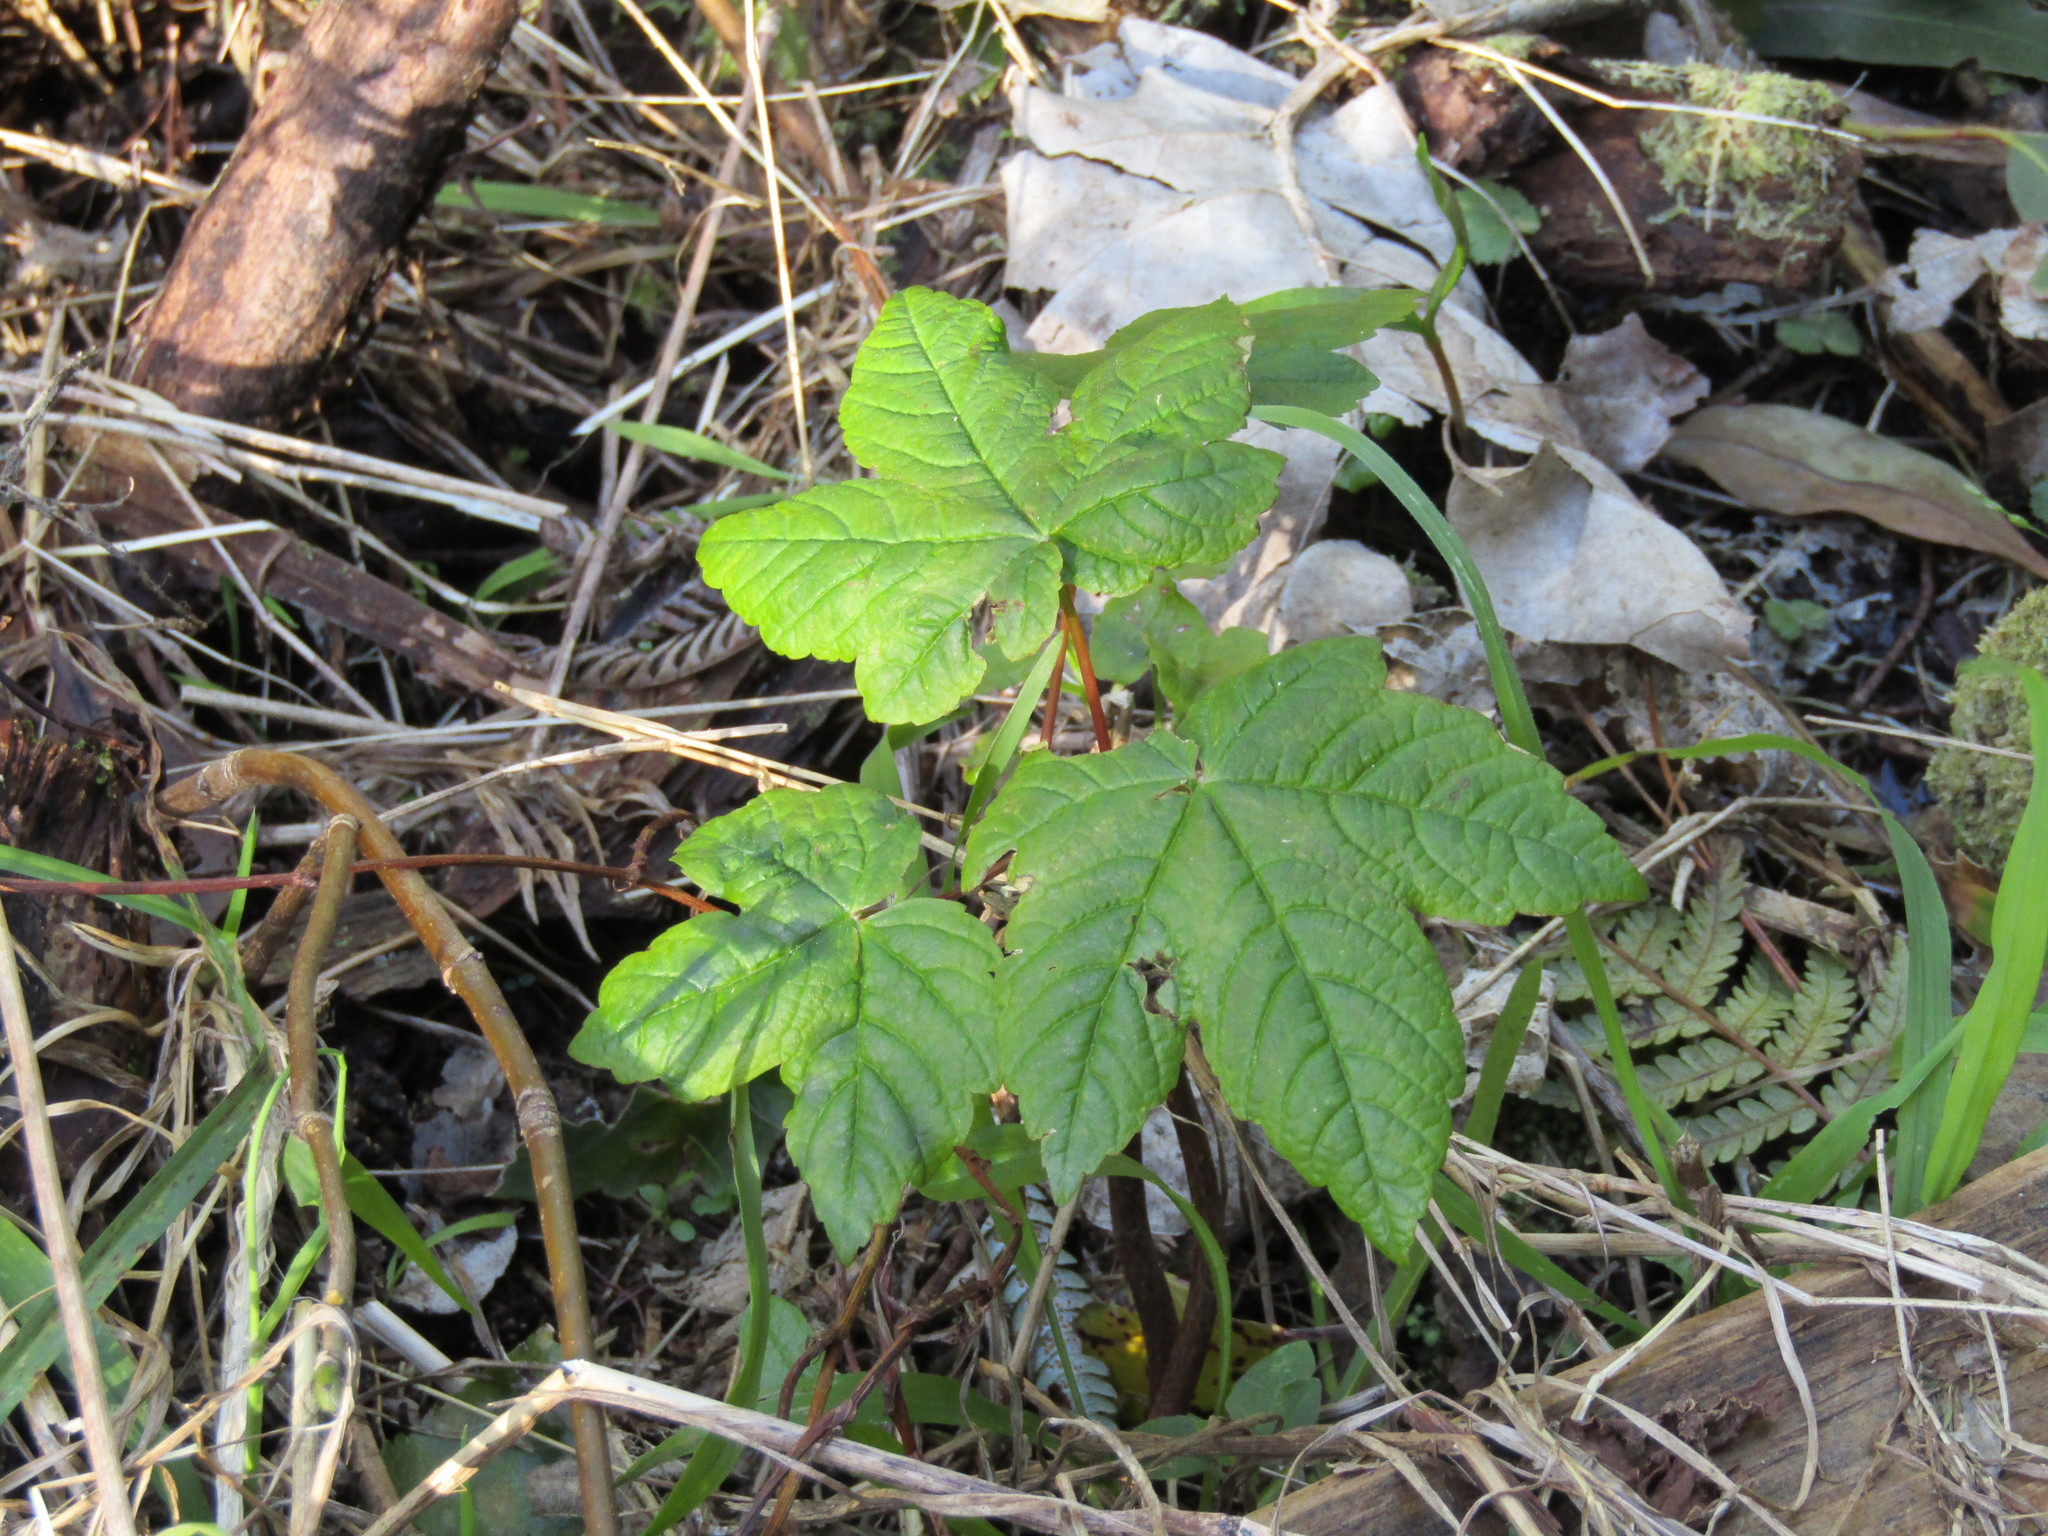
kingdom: Plantae
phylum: Tracheophyta
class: Magnoliopsida
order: Sapindales
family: Sapindaceae
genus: Acer
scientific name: Acer pseudoplatanus
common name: Sycamore
